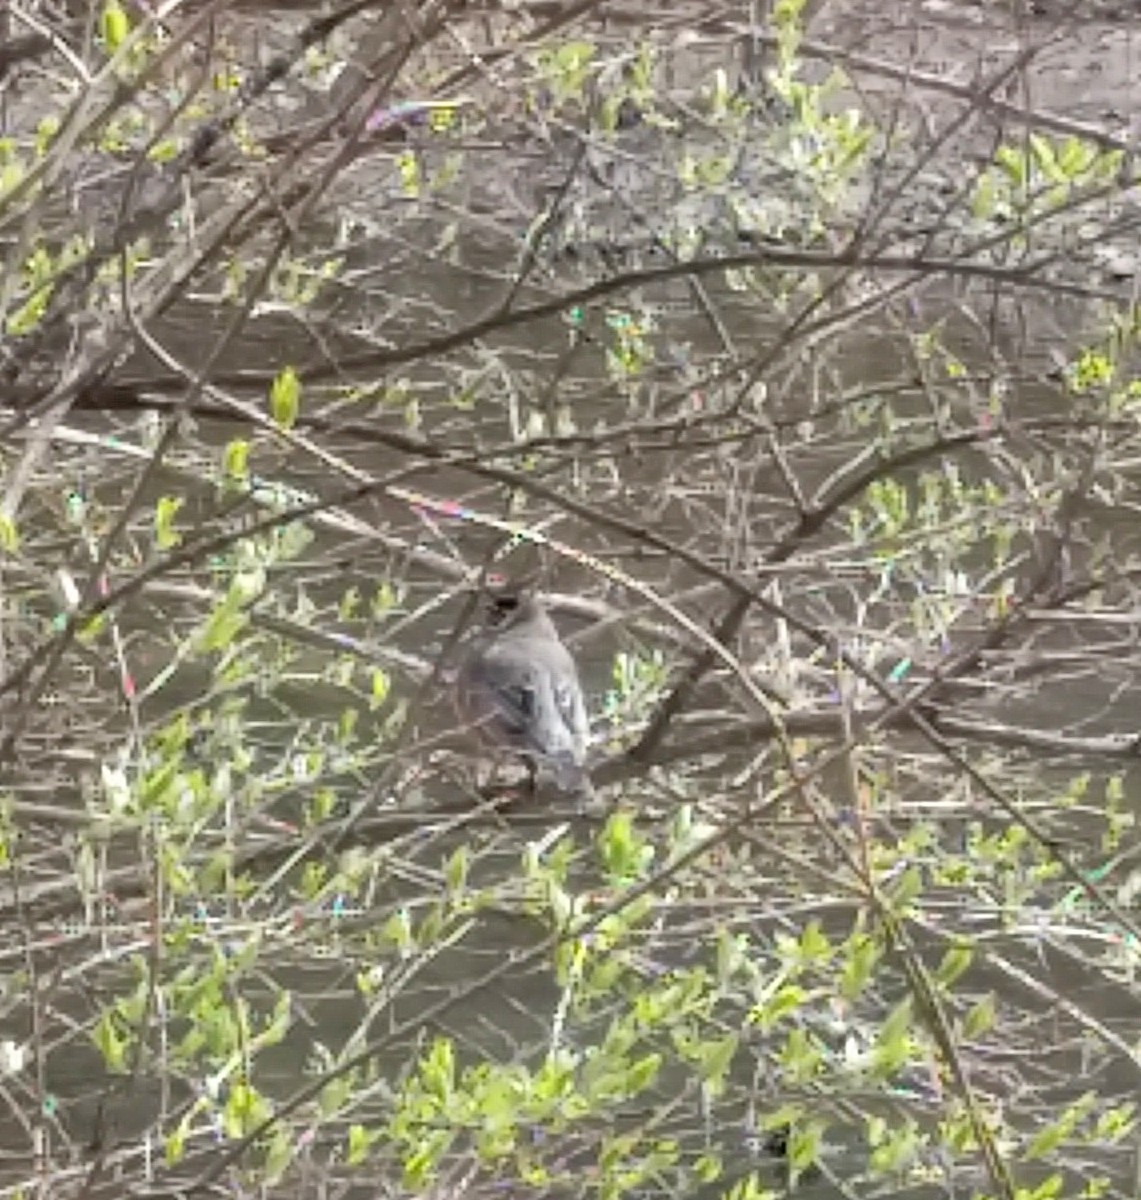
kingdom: Animalia
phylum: Chordata
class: Aves
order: Passeriformes
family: Turdidae
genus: Turdus
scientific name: Turdus migratorius
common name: American robin
